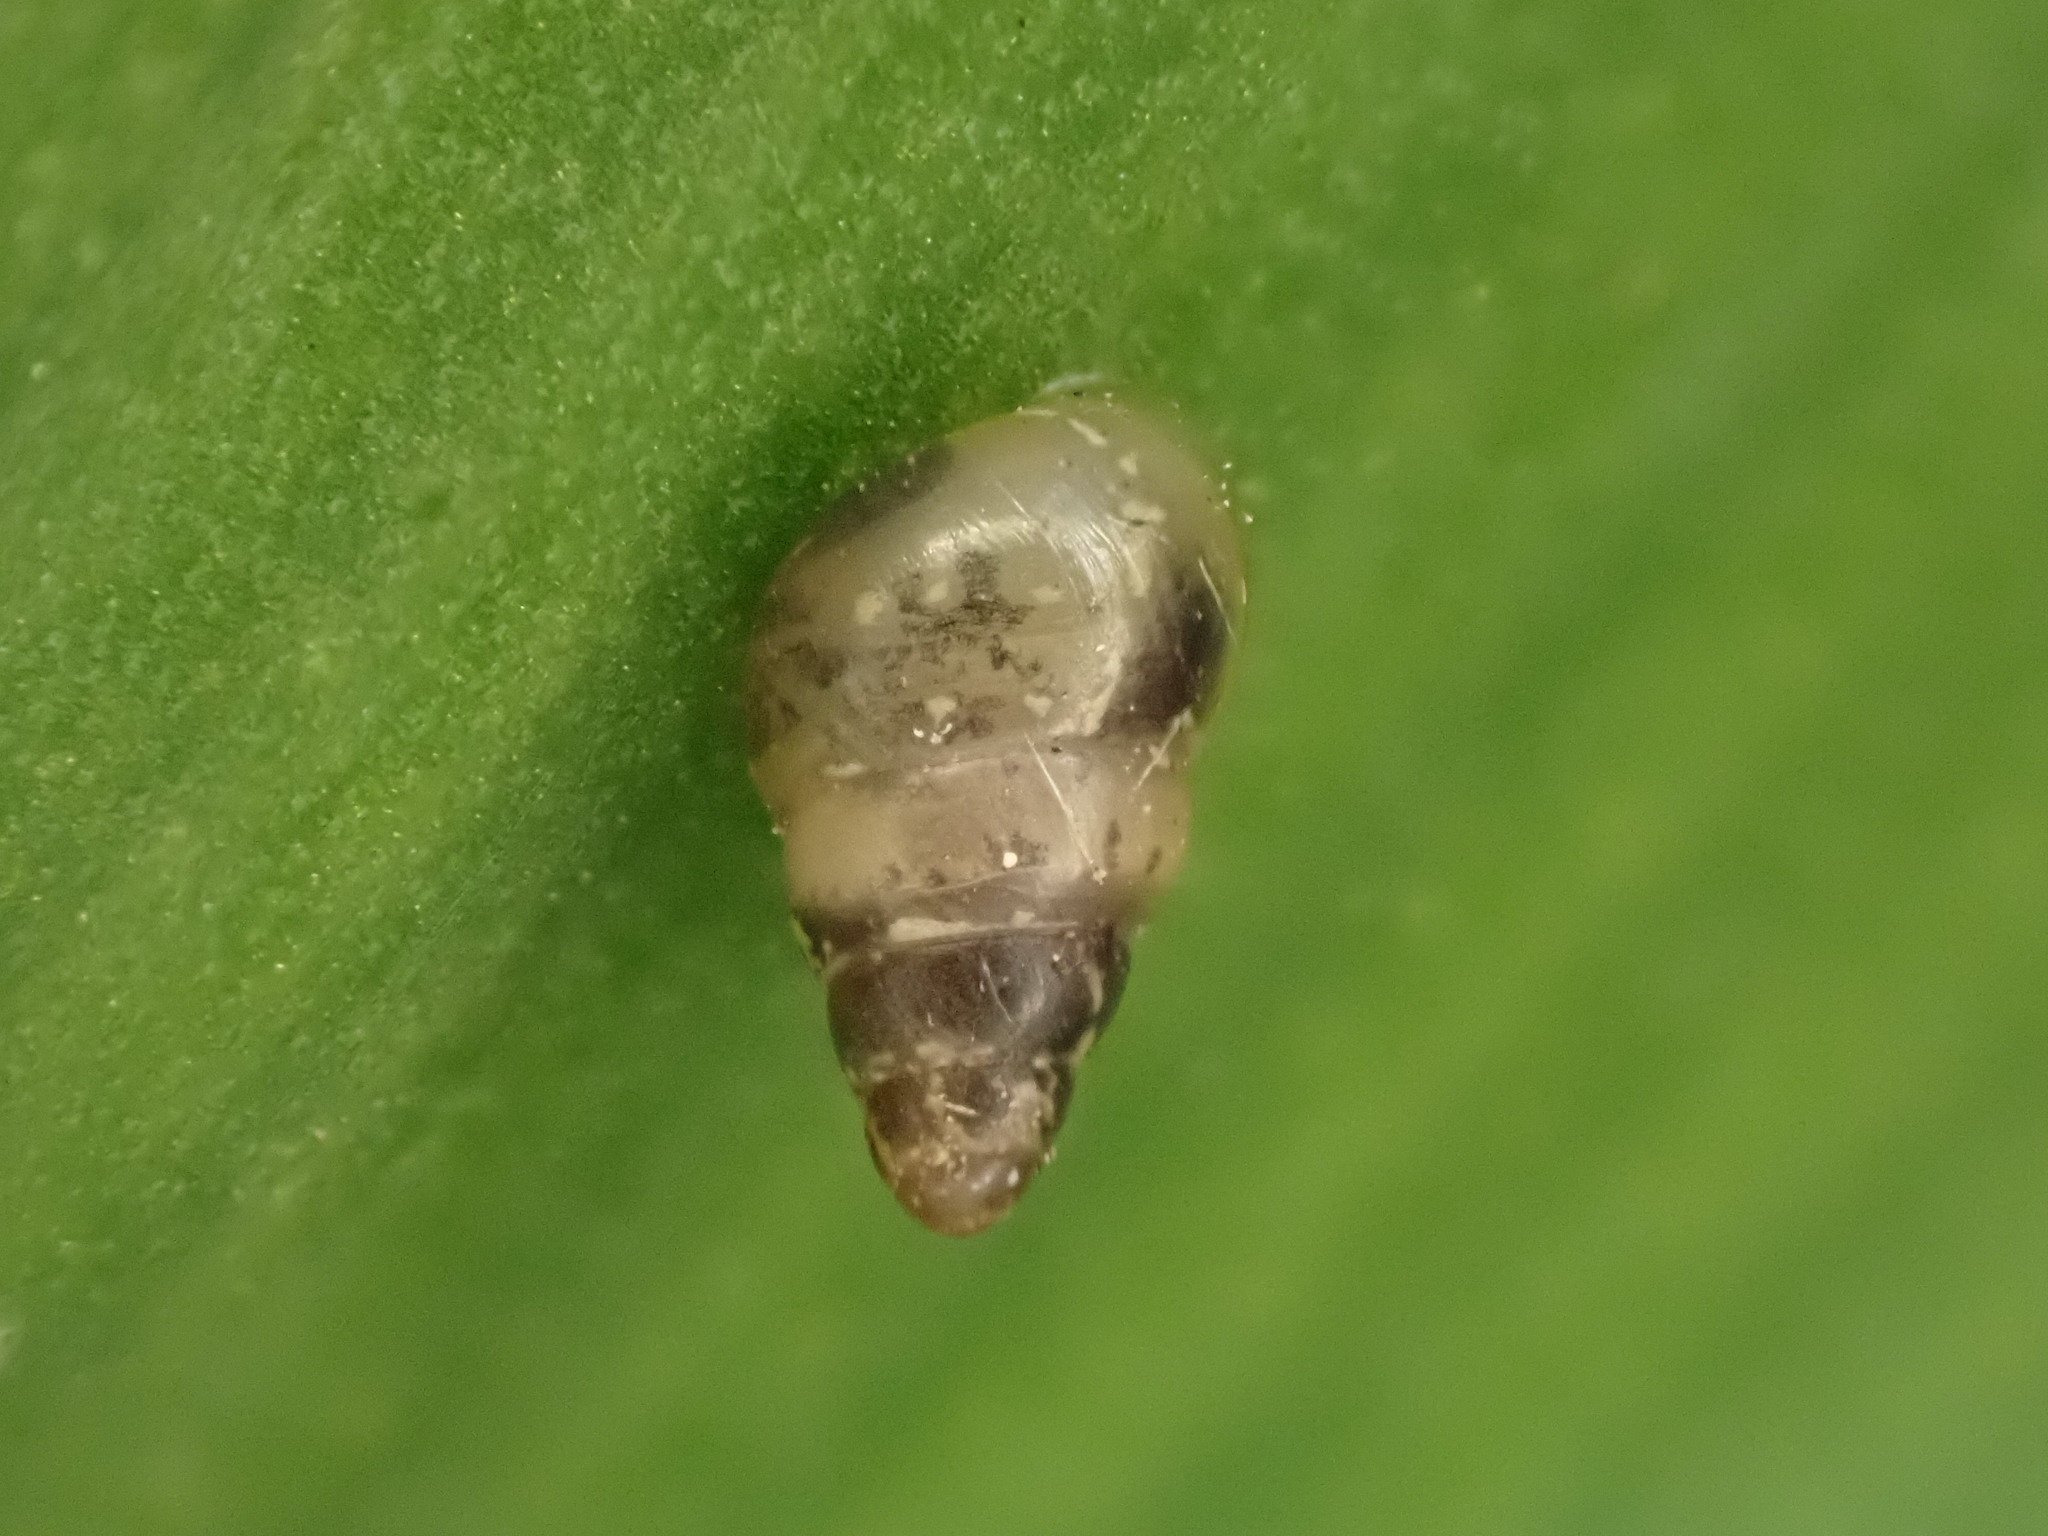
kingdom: Animalia
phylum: Mollusca
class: Gastropoda
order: Stylommatophora
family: Achatinellidae
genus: Tornatellides
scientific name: Tornatellides subperforatus
